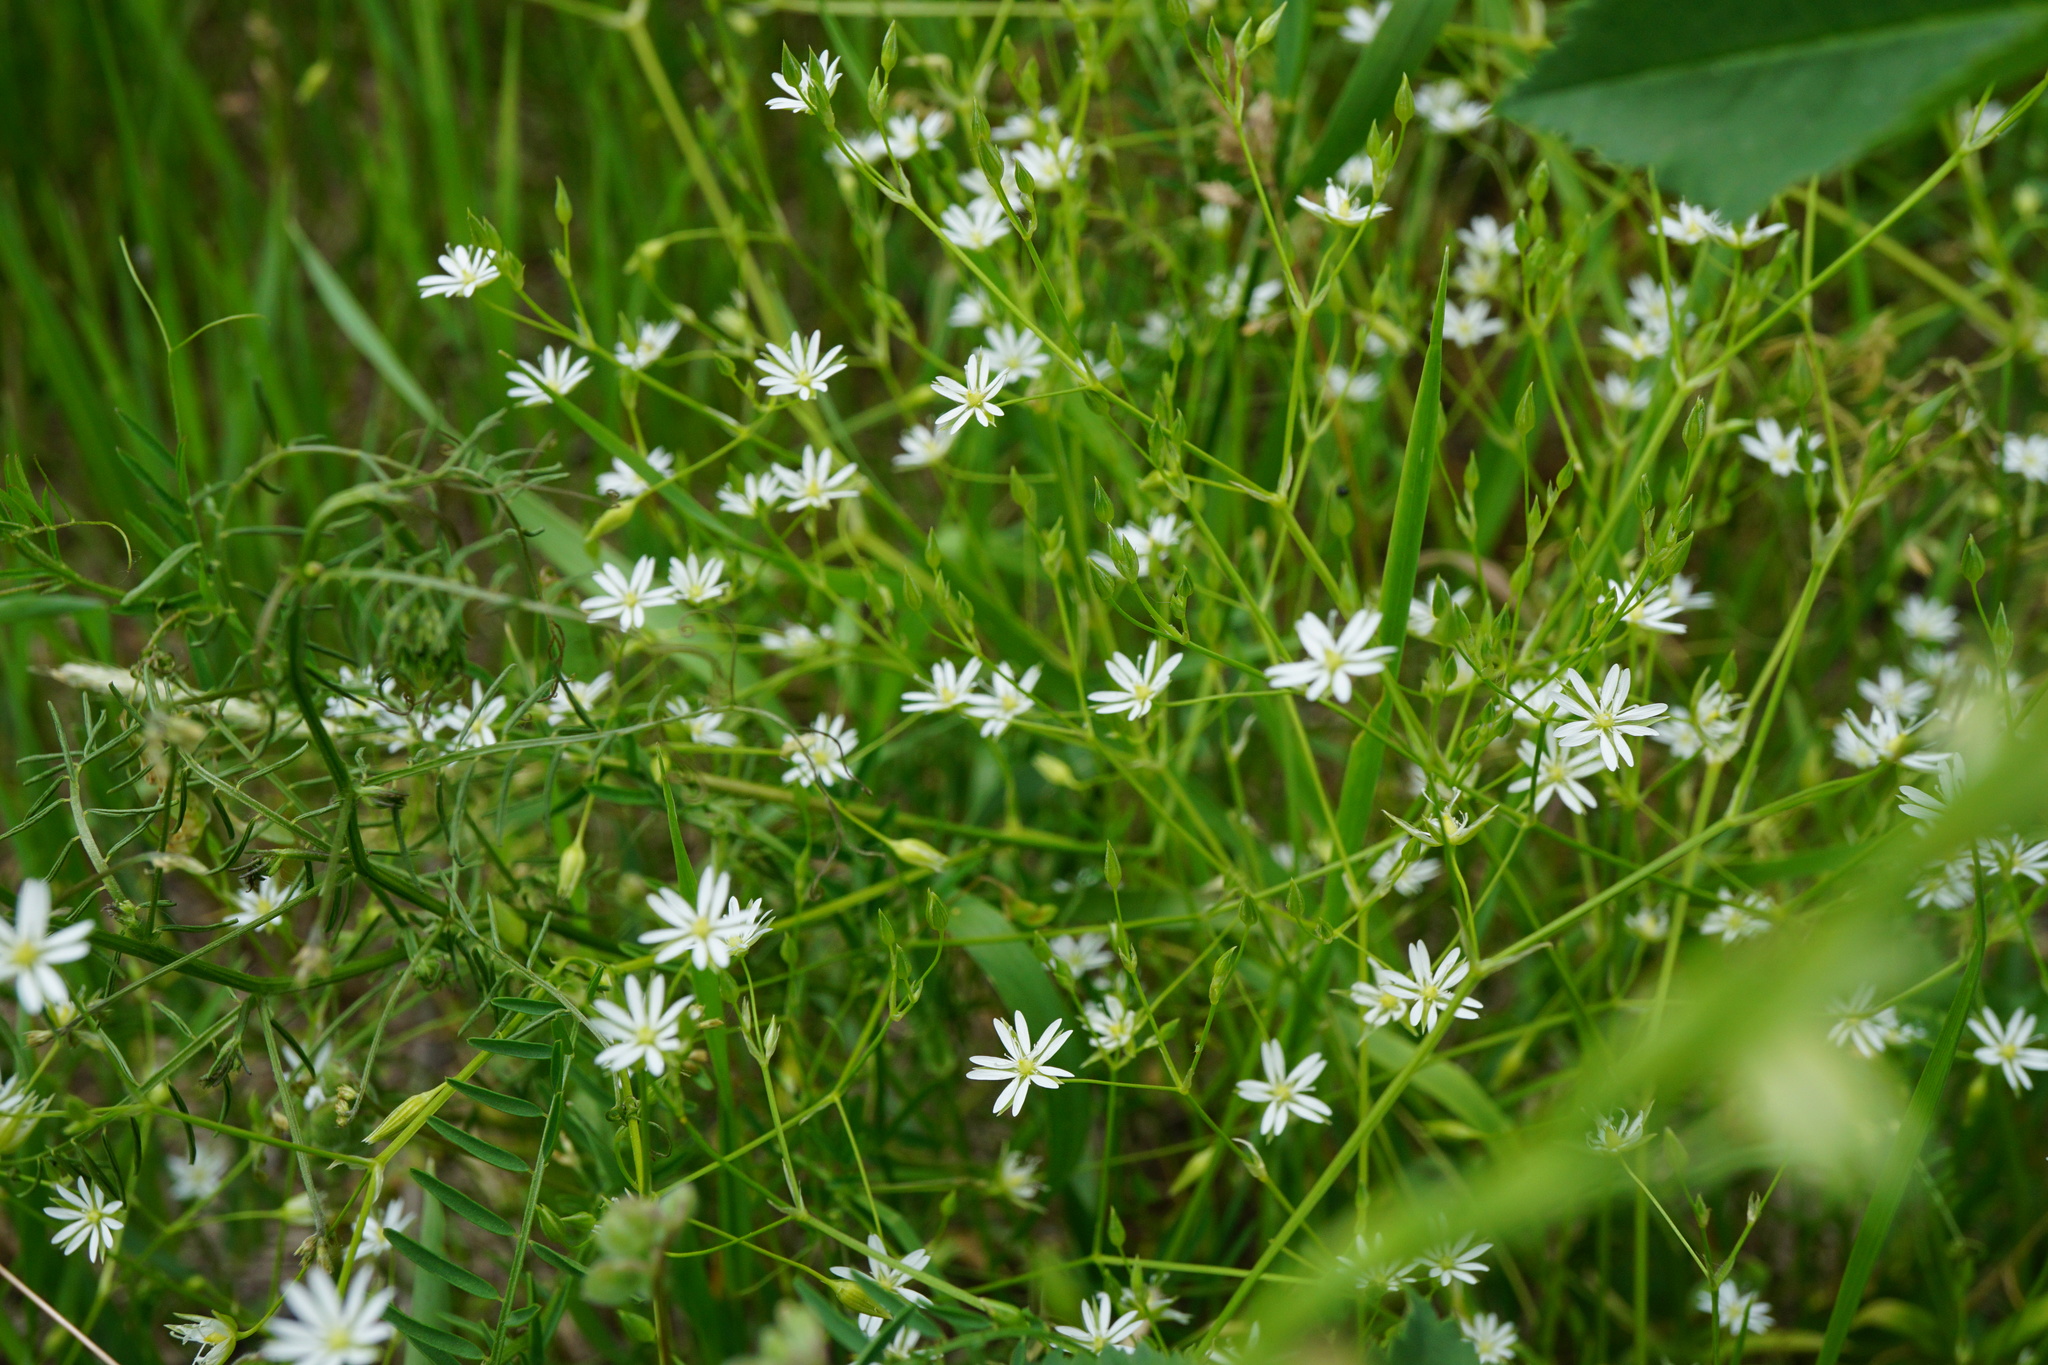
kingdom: Plantae
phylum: Tracheophyta
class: Magnoliopsida
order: Caryophyllales
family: Caryophyllaceae
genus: Stellaria
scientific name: Stellaria graminea
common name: Grass-like starwort
